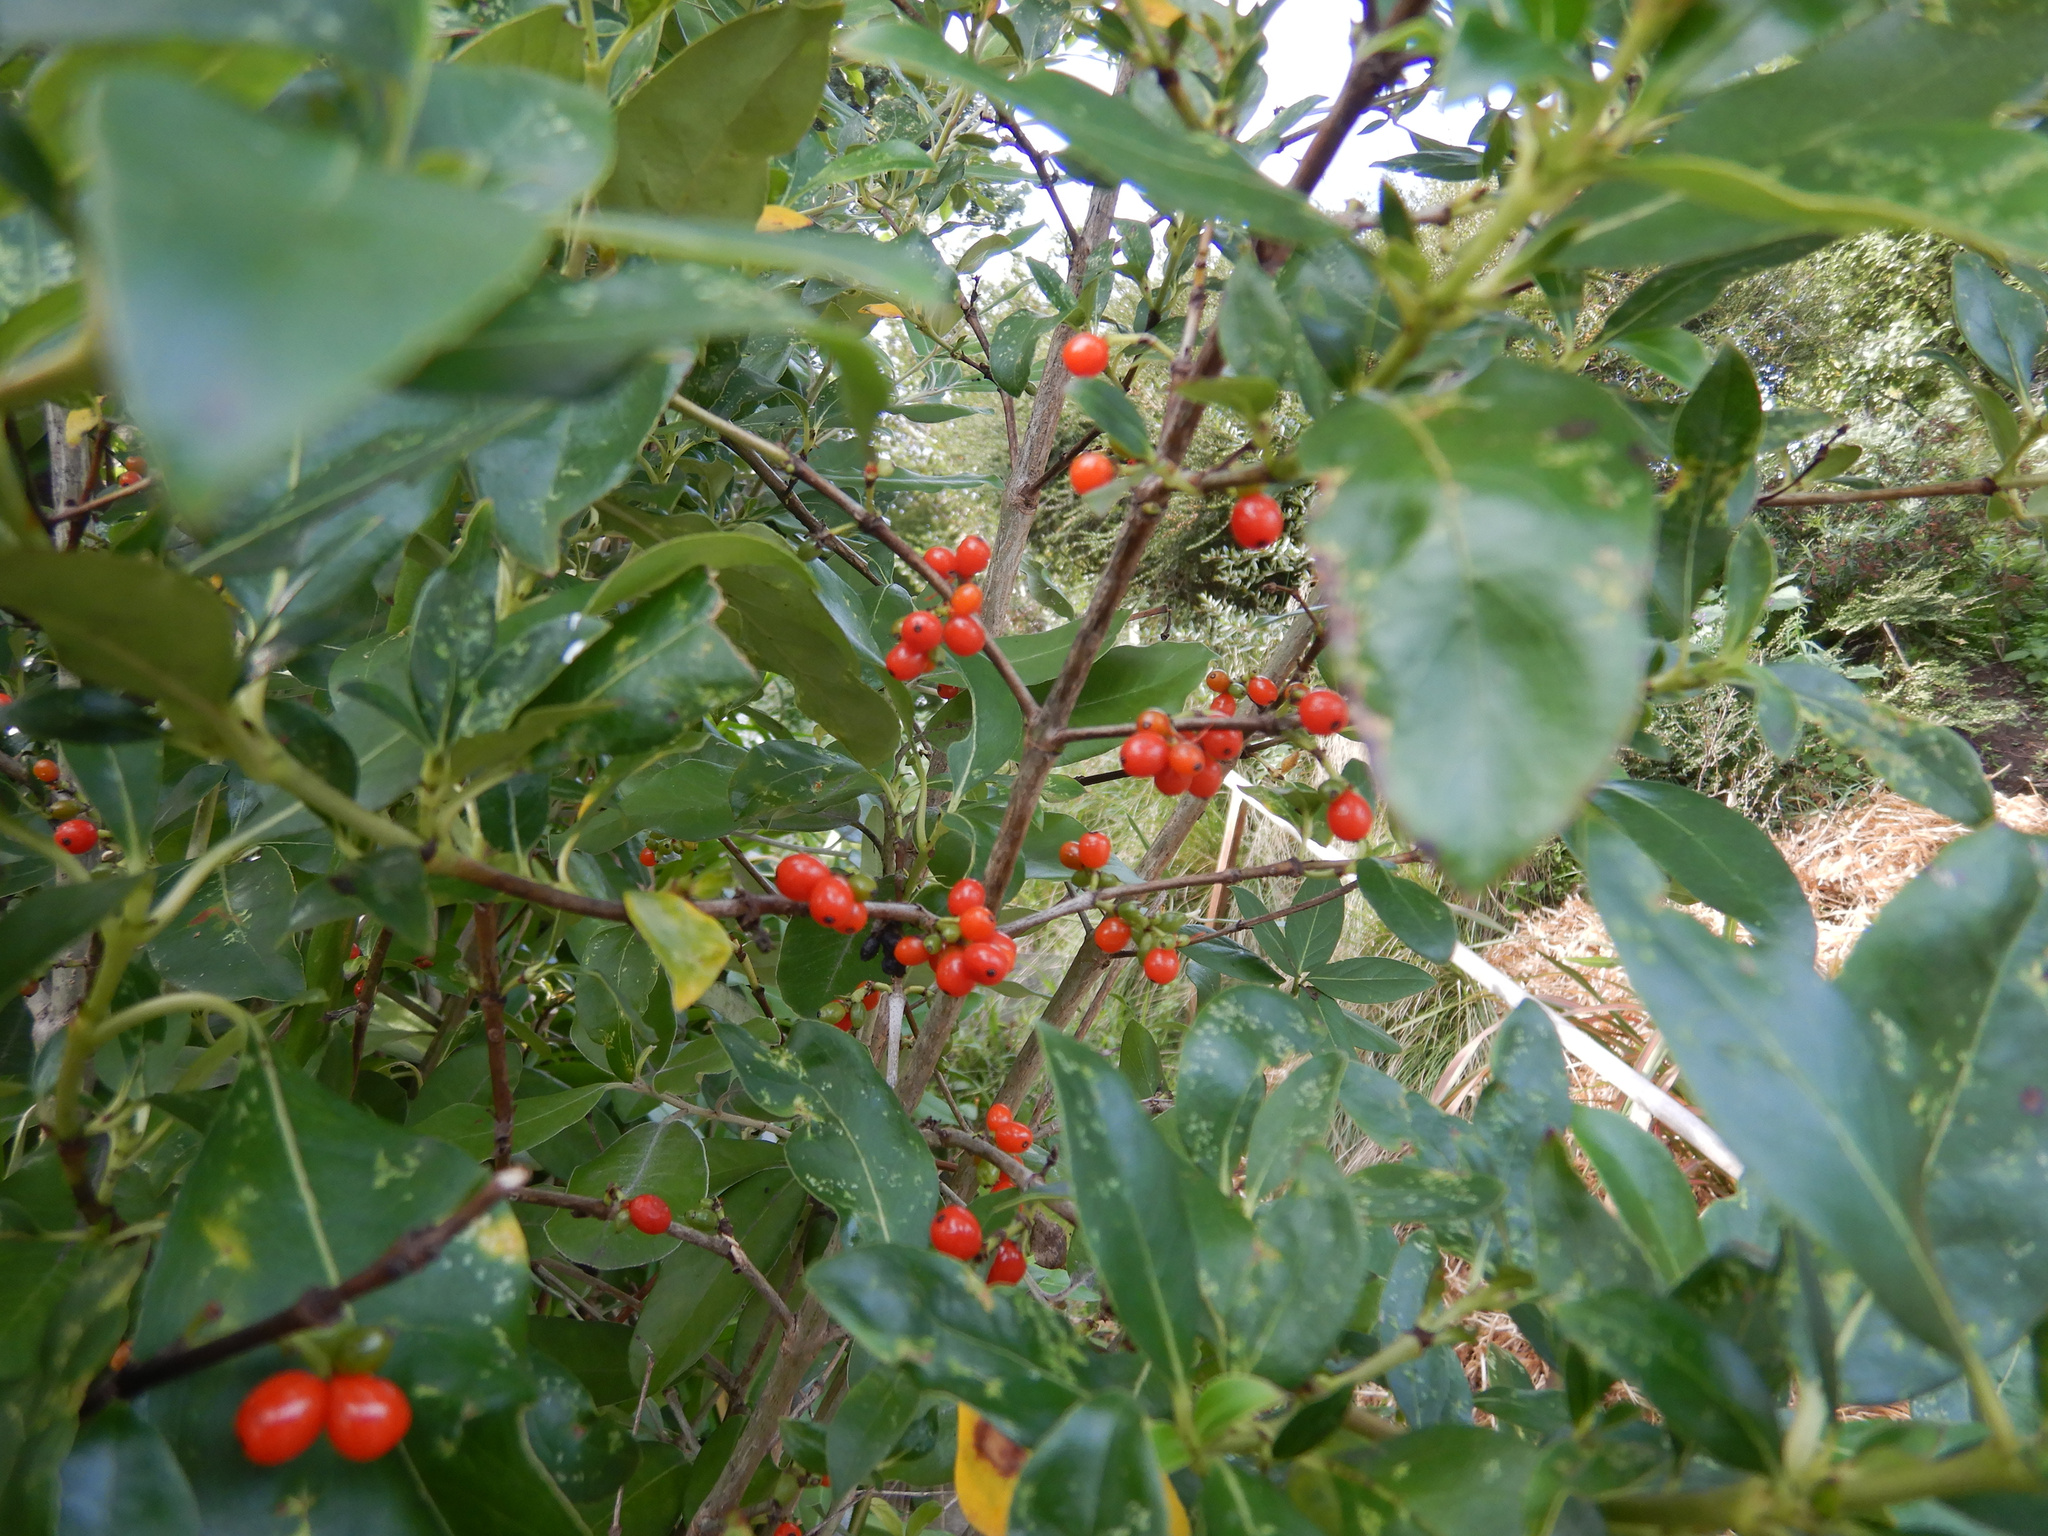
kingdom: Plantae
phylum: Tracheophyta
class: Magnoliopsida
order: Gentianales
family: Rubiaceae
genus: Coprosma
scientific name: Coprosma robusta
